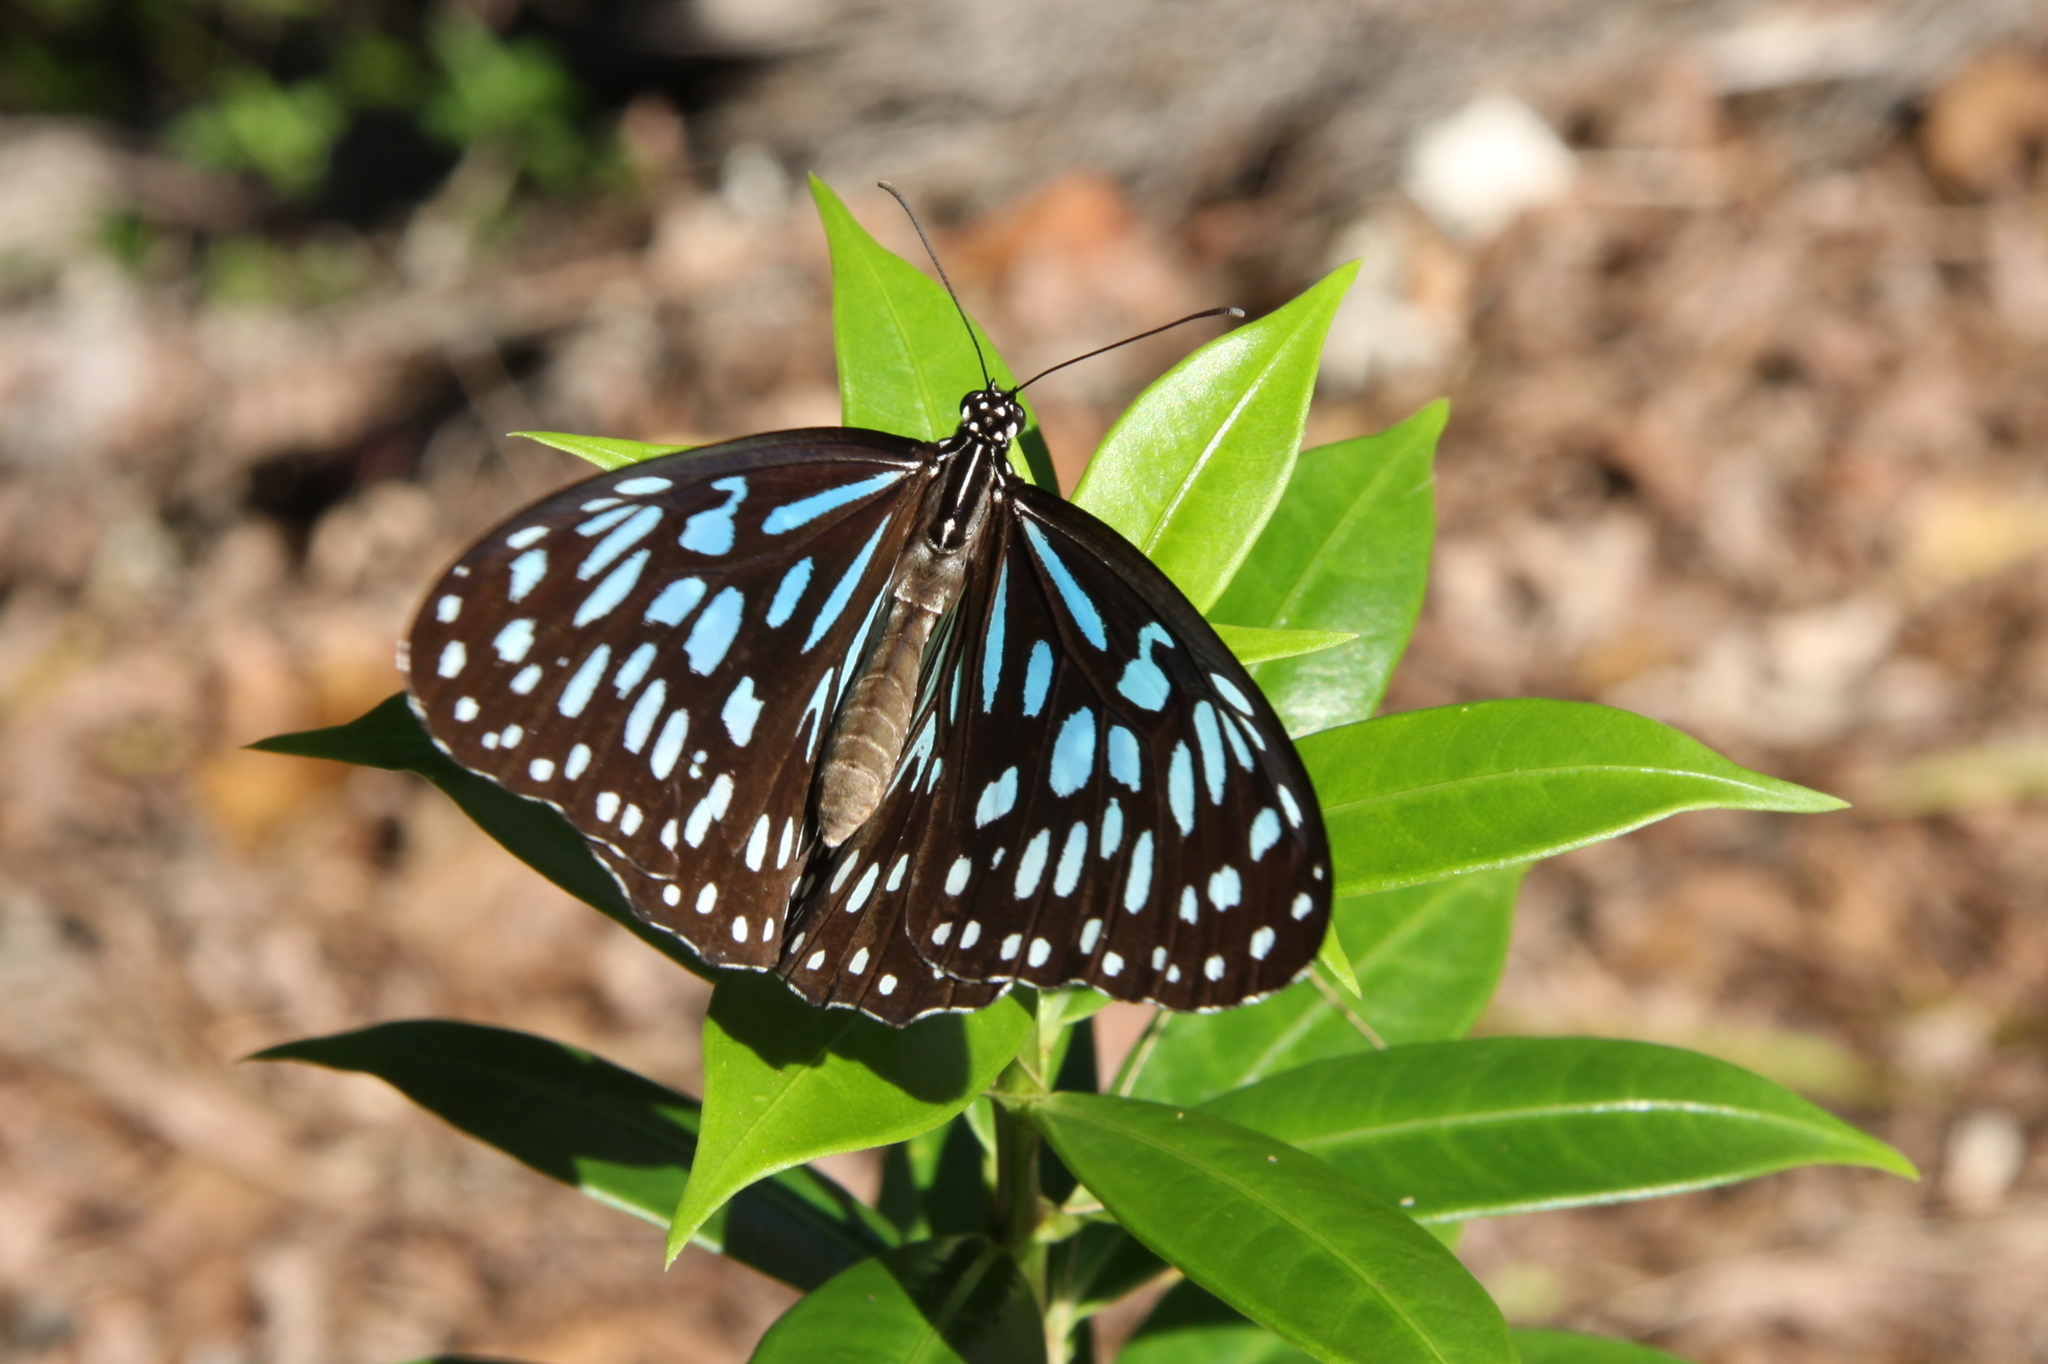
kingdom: Animalia
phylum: Arthropoda
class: Insecta
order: Lepidoptera
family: Nymphalidae
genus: Tirumala
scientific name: Tirumala hamata
